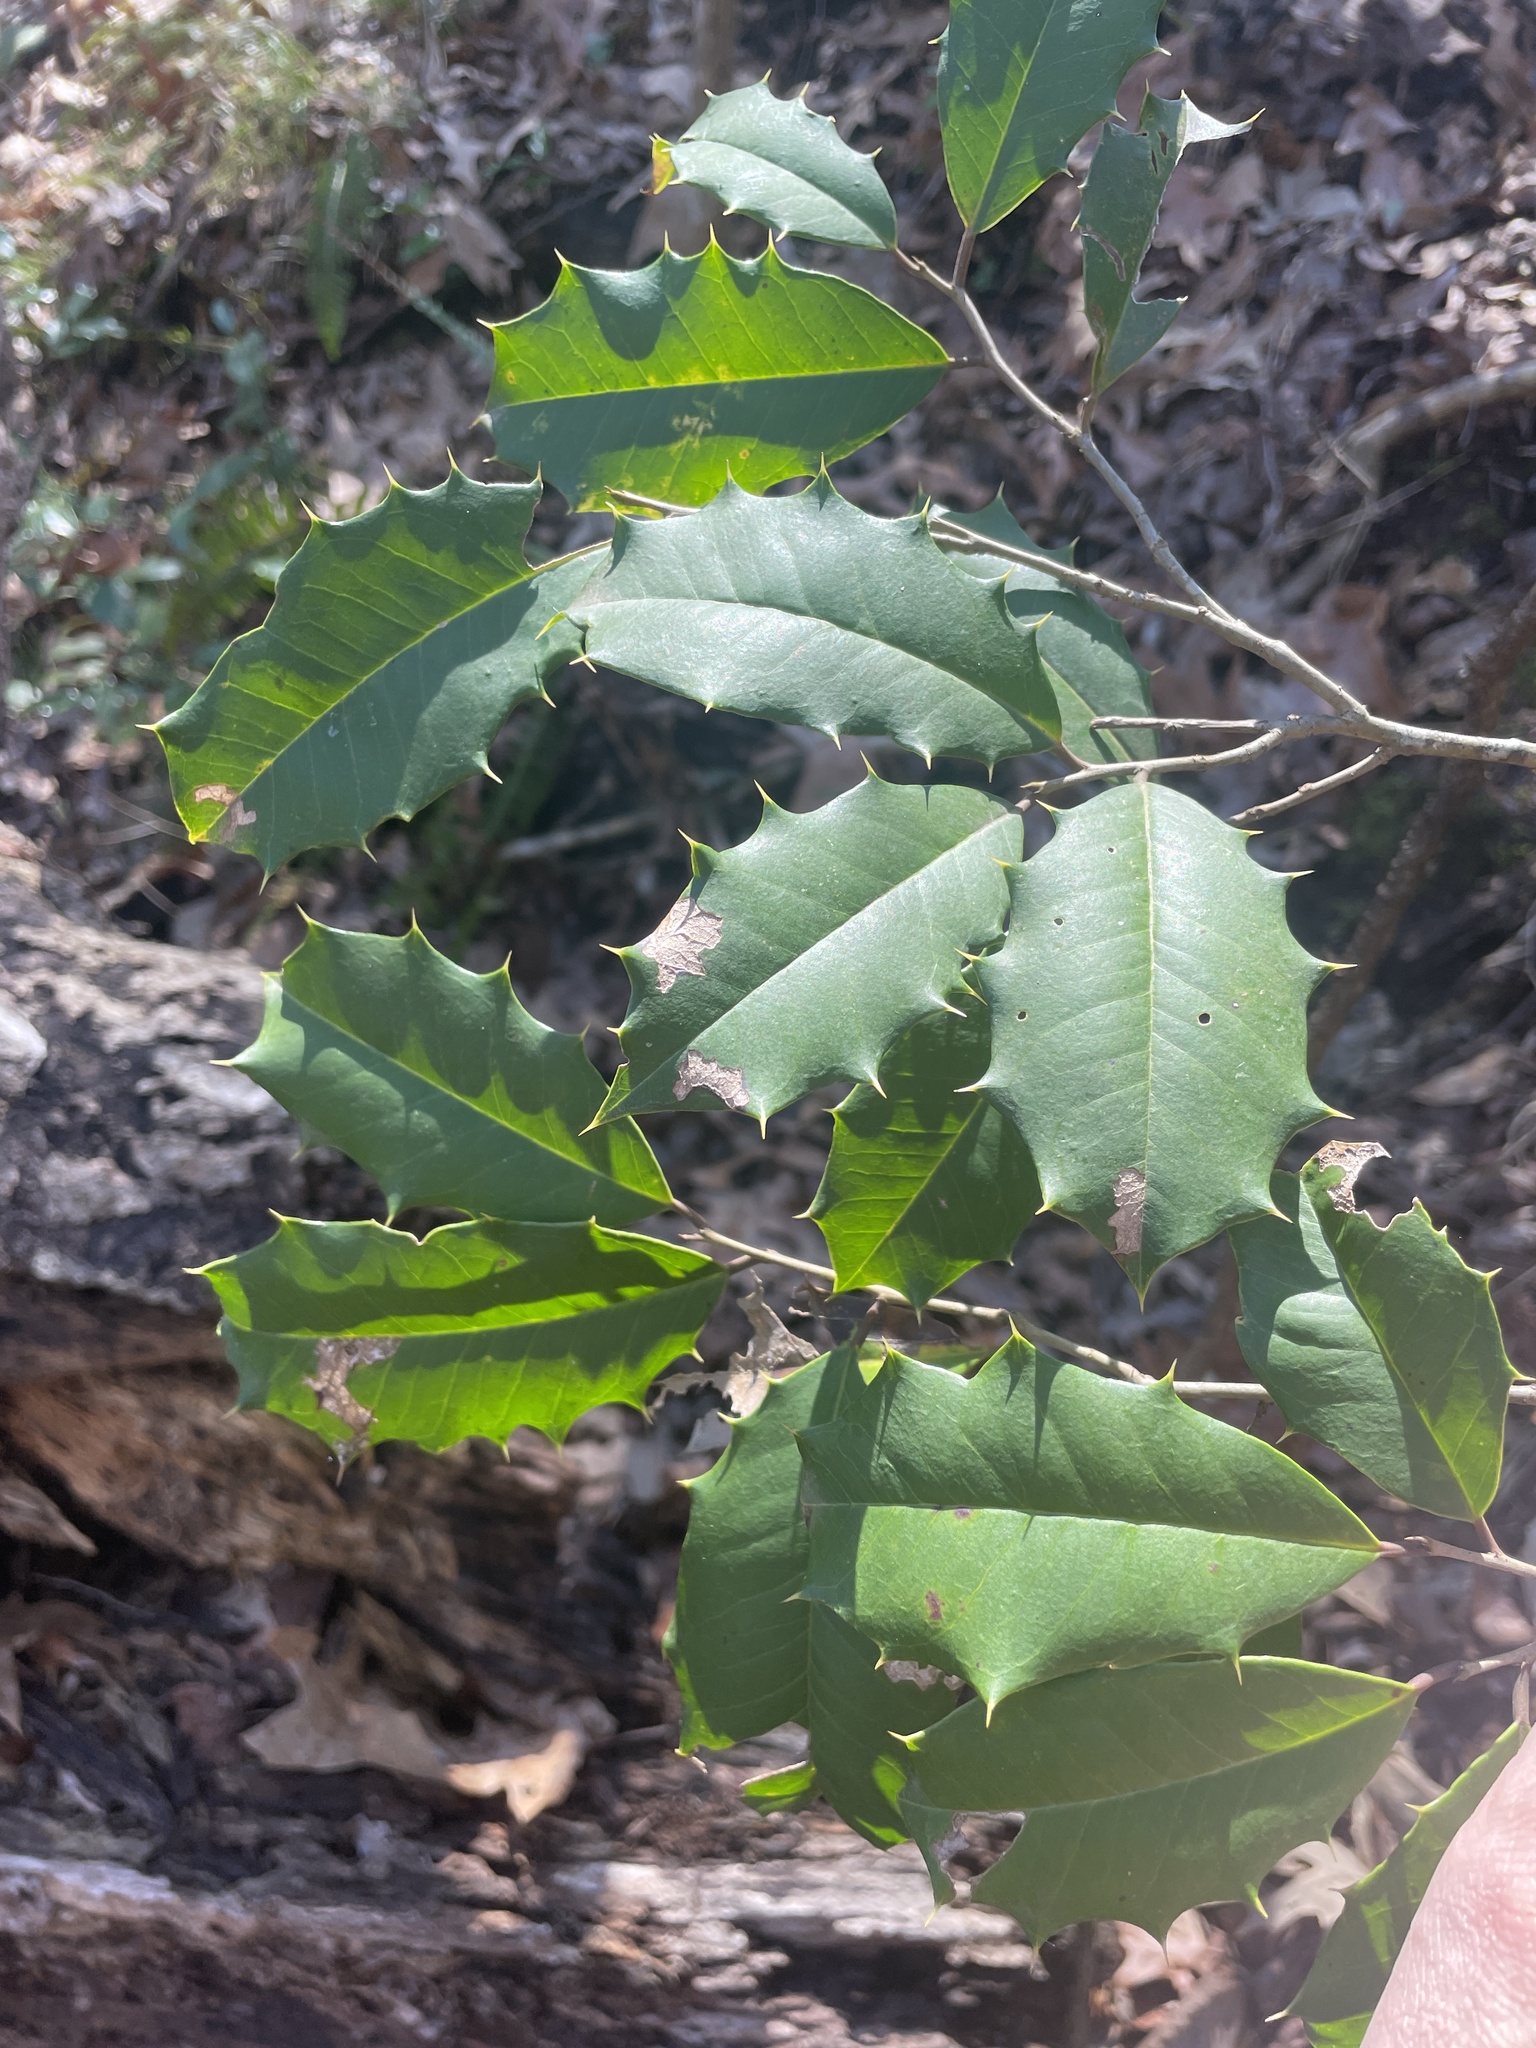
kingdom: Plantae
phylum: Tracheophyta
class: Magnoliopsida
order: Aquifoliales
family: Aquifoliaceae
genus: Ilex
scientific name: Ilex opaca
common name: American holly
